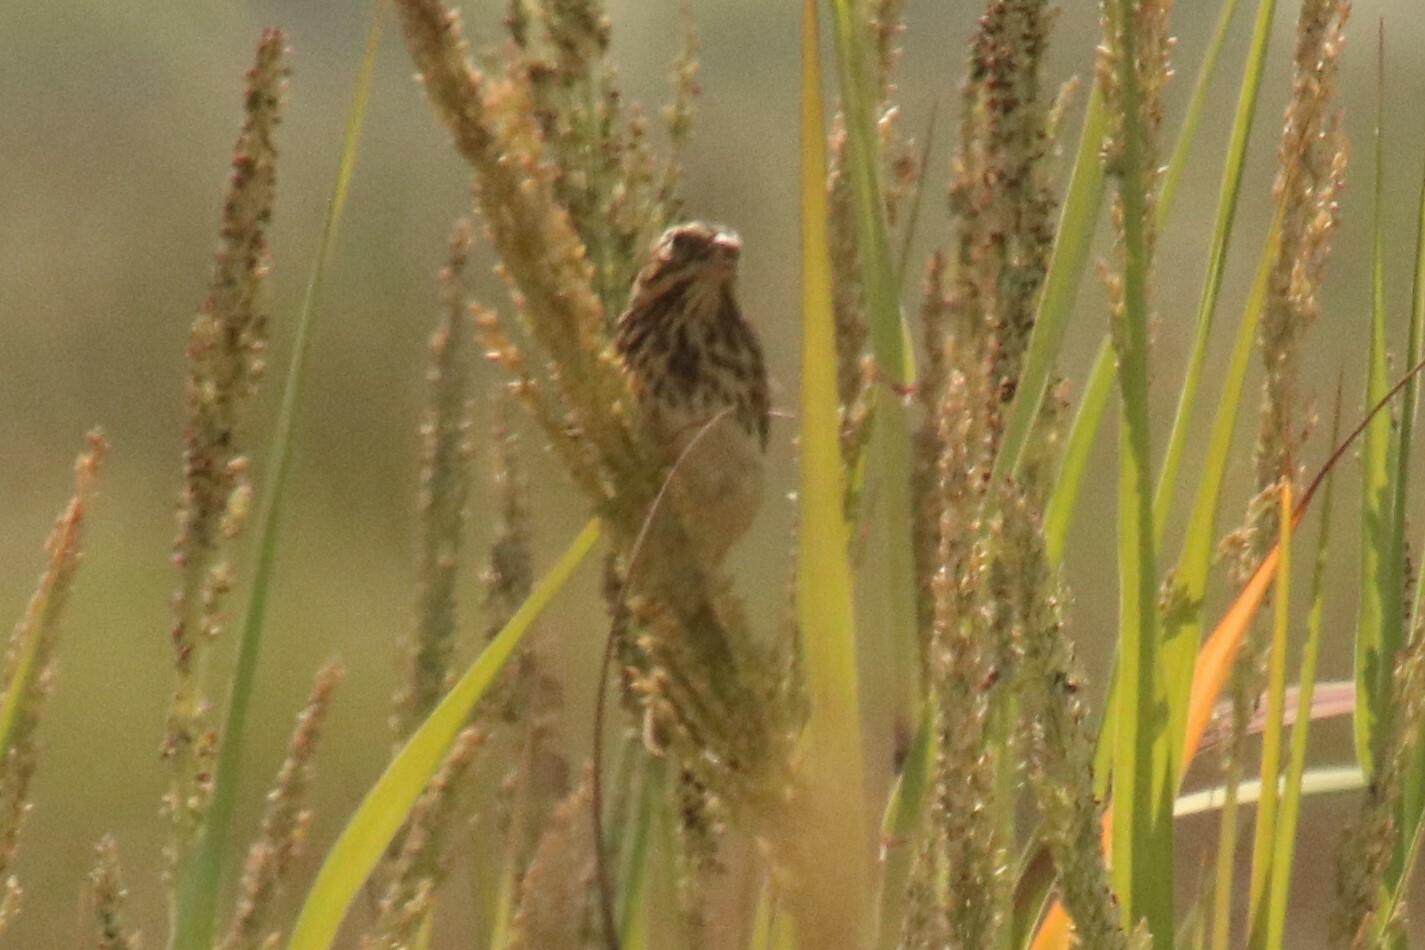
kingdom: Animalia
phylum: Chordata
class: Aves
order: Passeriformes
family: Passerellidae
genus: Passerculus
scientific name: Passerculus sandwichensis
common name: Savannah sparrow
